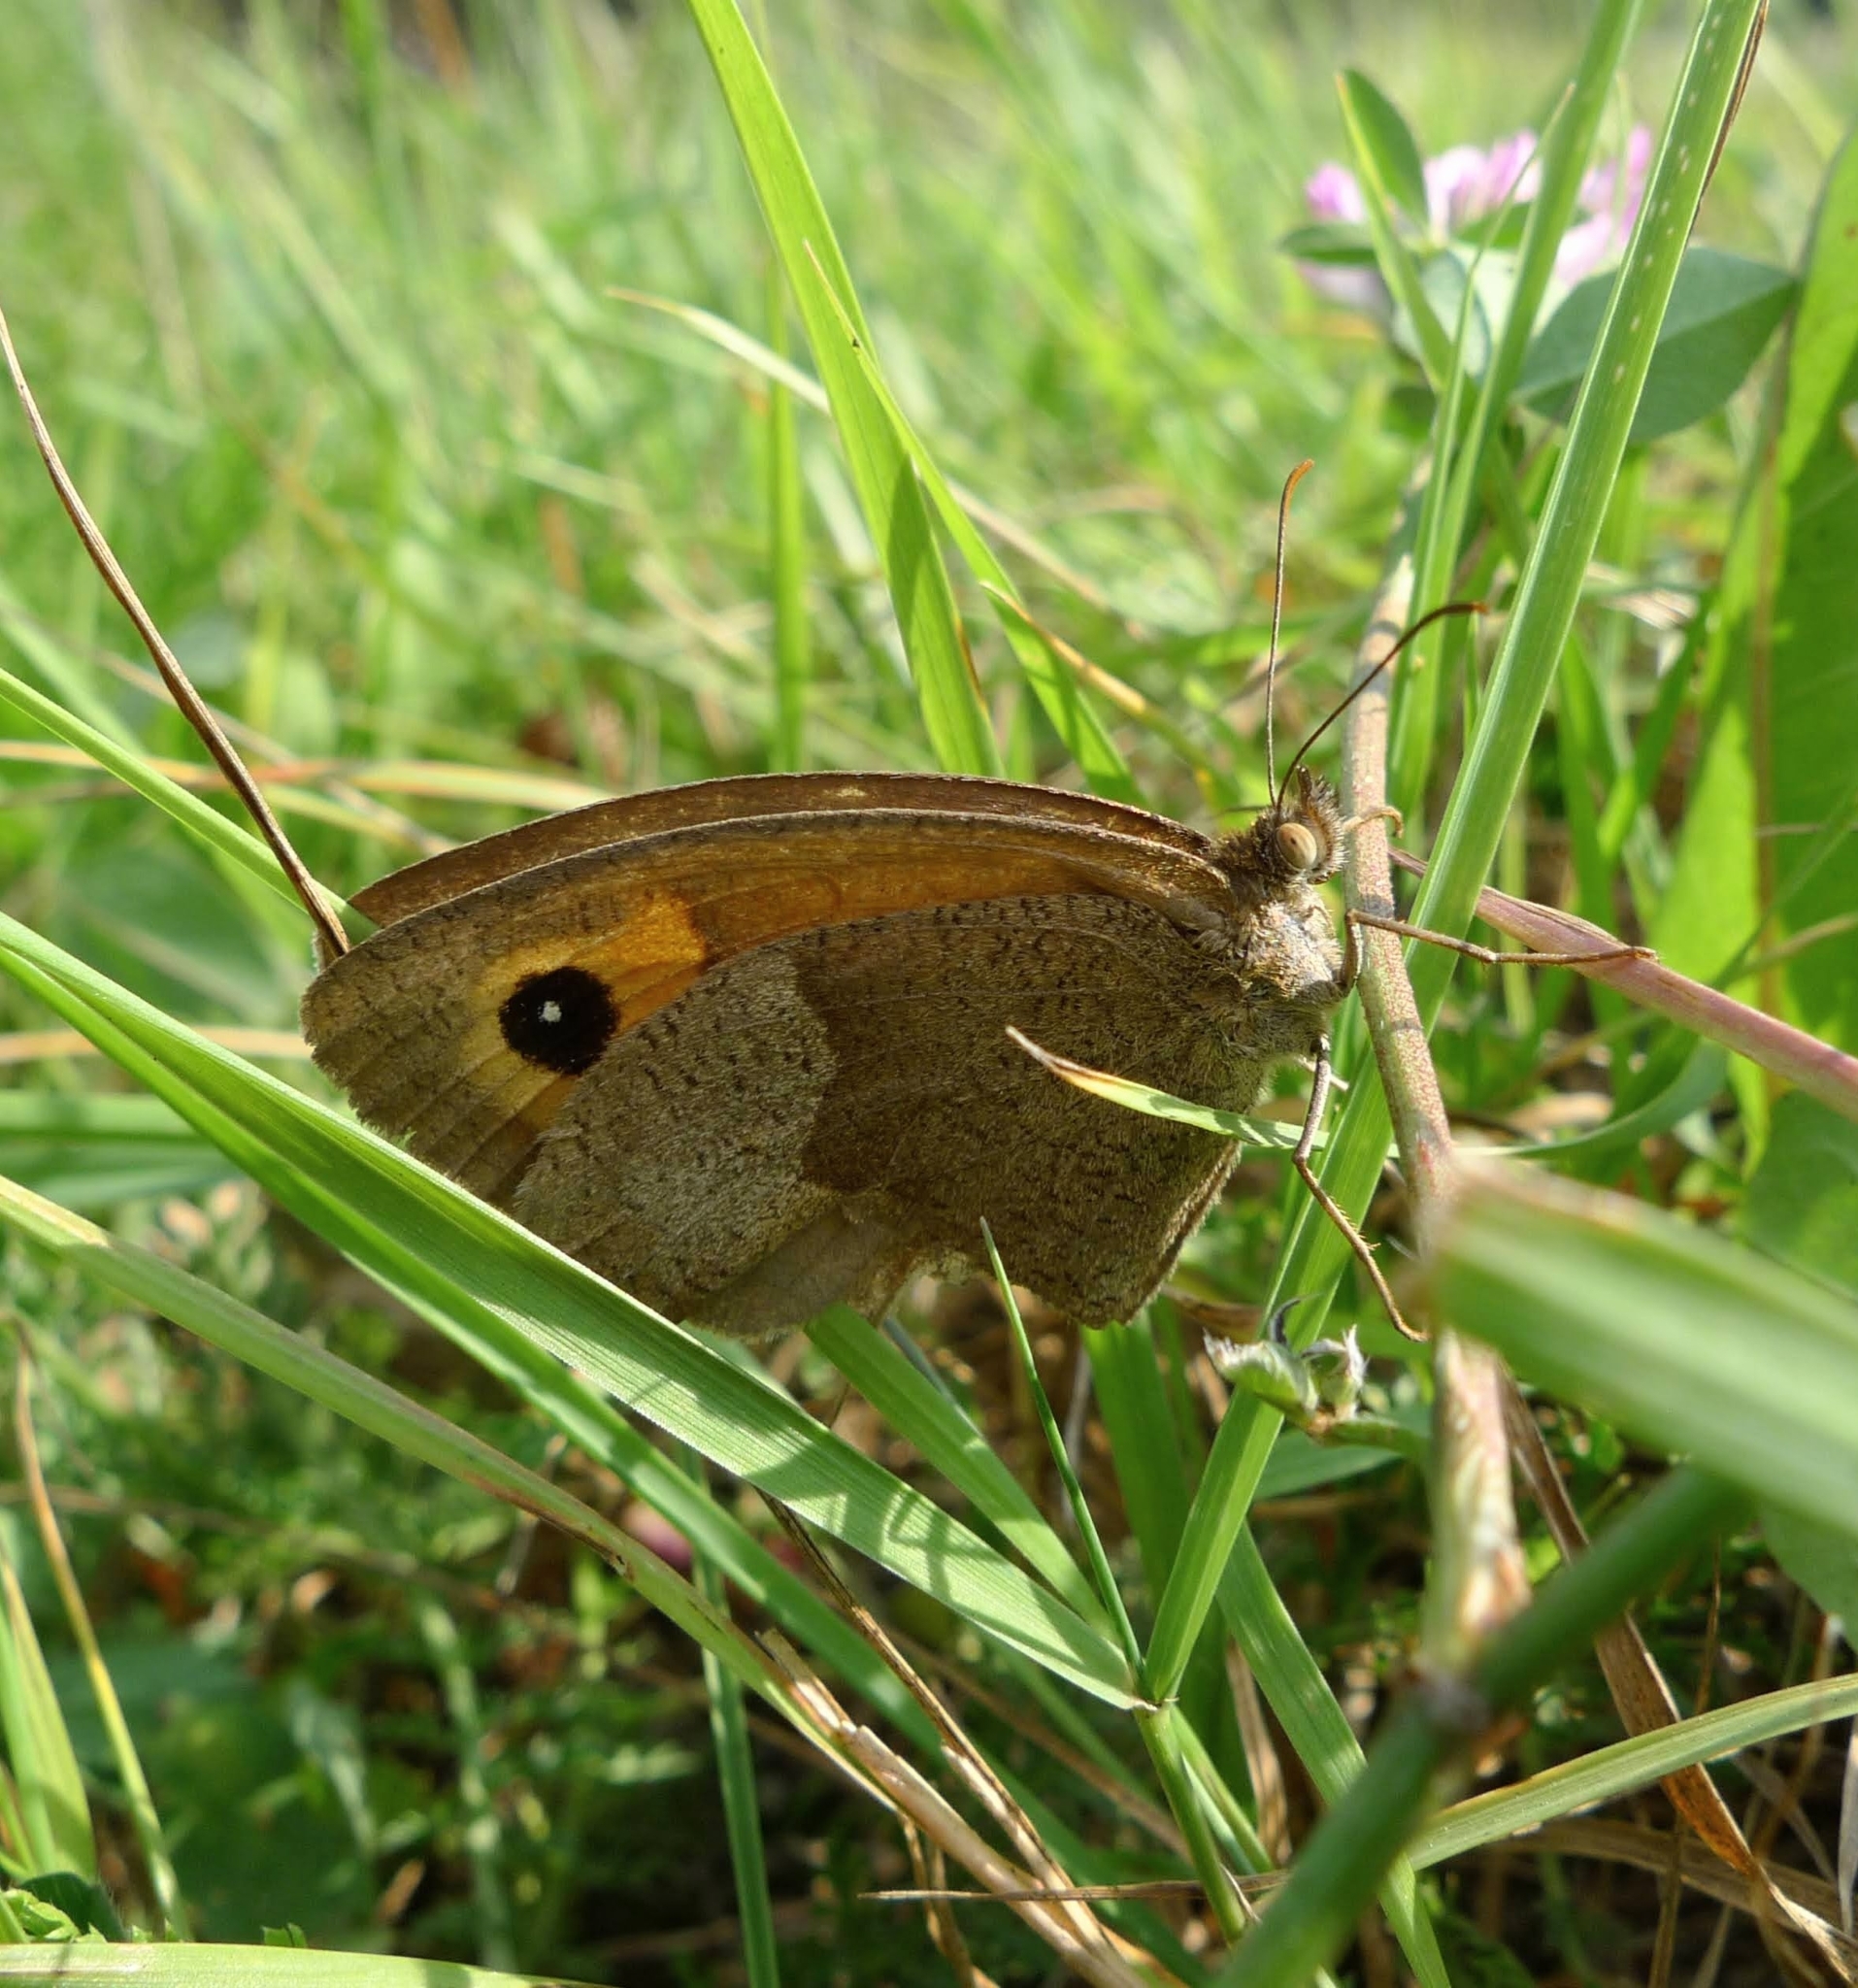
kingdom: Animalia
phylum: Arthropoda
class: Insecta
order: Lepidoptera
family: Nymphalidae
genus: Maniola
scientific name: Maniola jurtina
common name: Meadow brown
